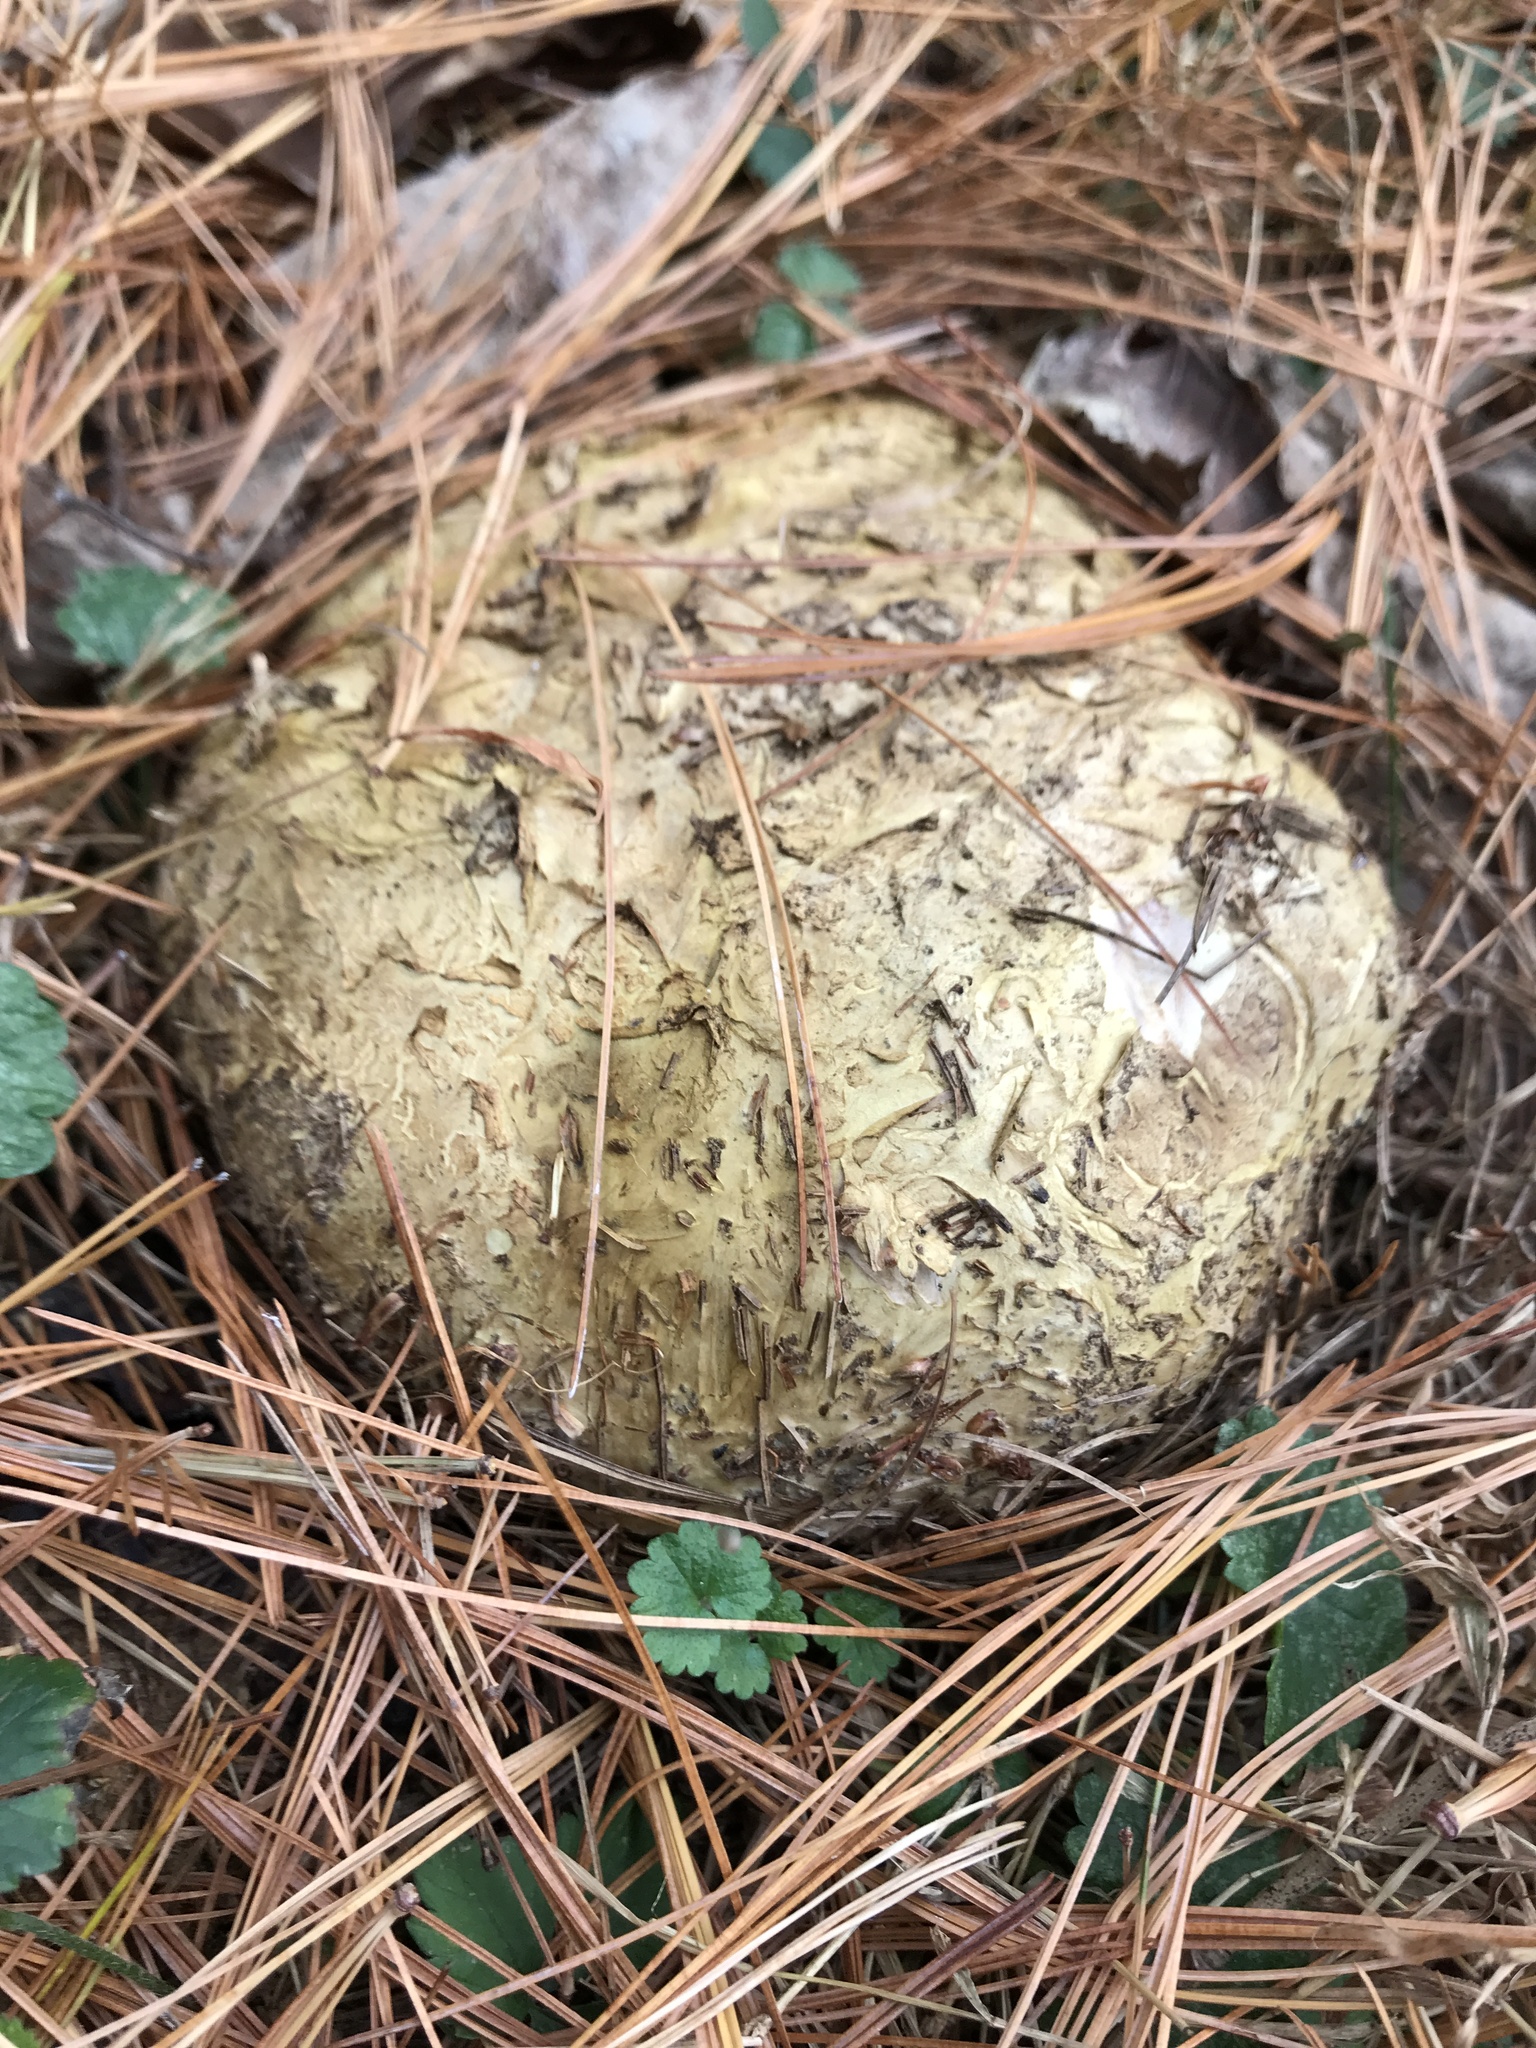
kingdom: Fungi
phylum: Basidiomycota
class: Agaricomycetes
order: Boletales
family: Sclerodermataceae
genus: Scleroderma
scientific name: Scleroderma polyrhizum
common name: Many-rooted earthball
